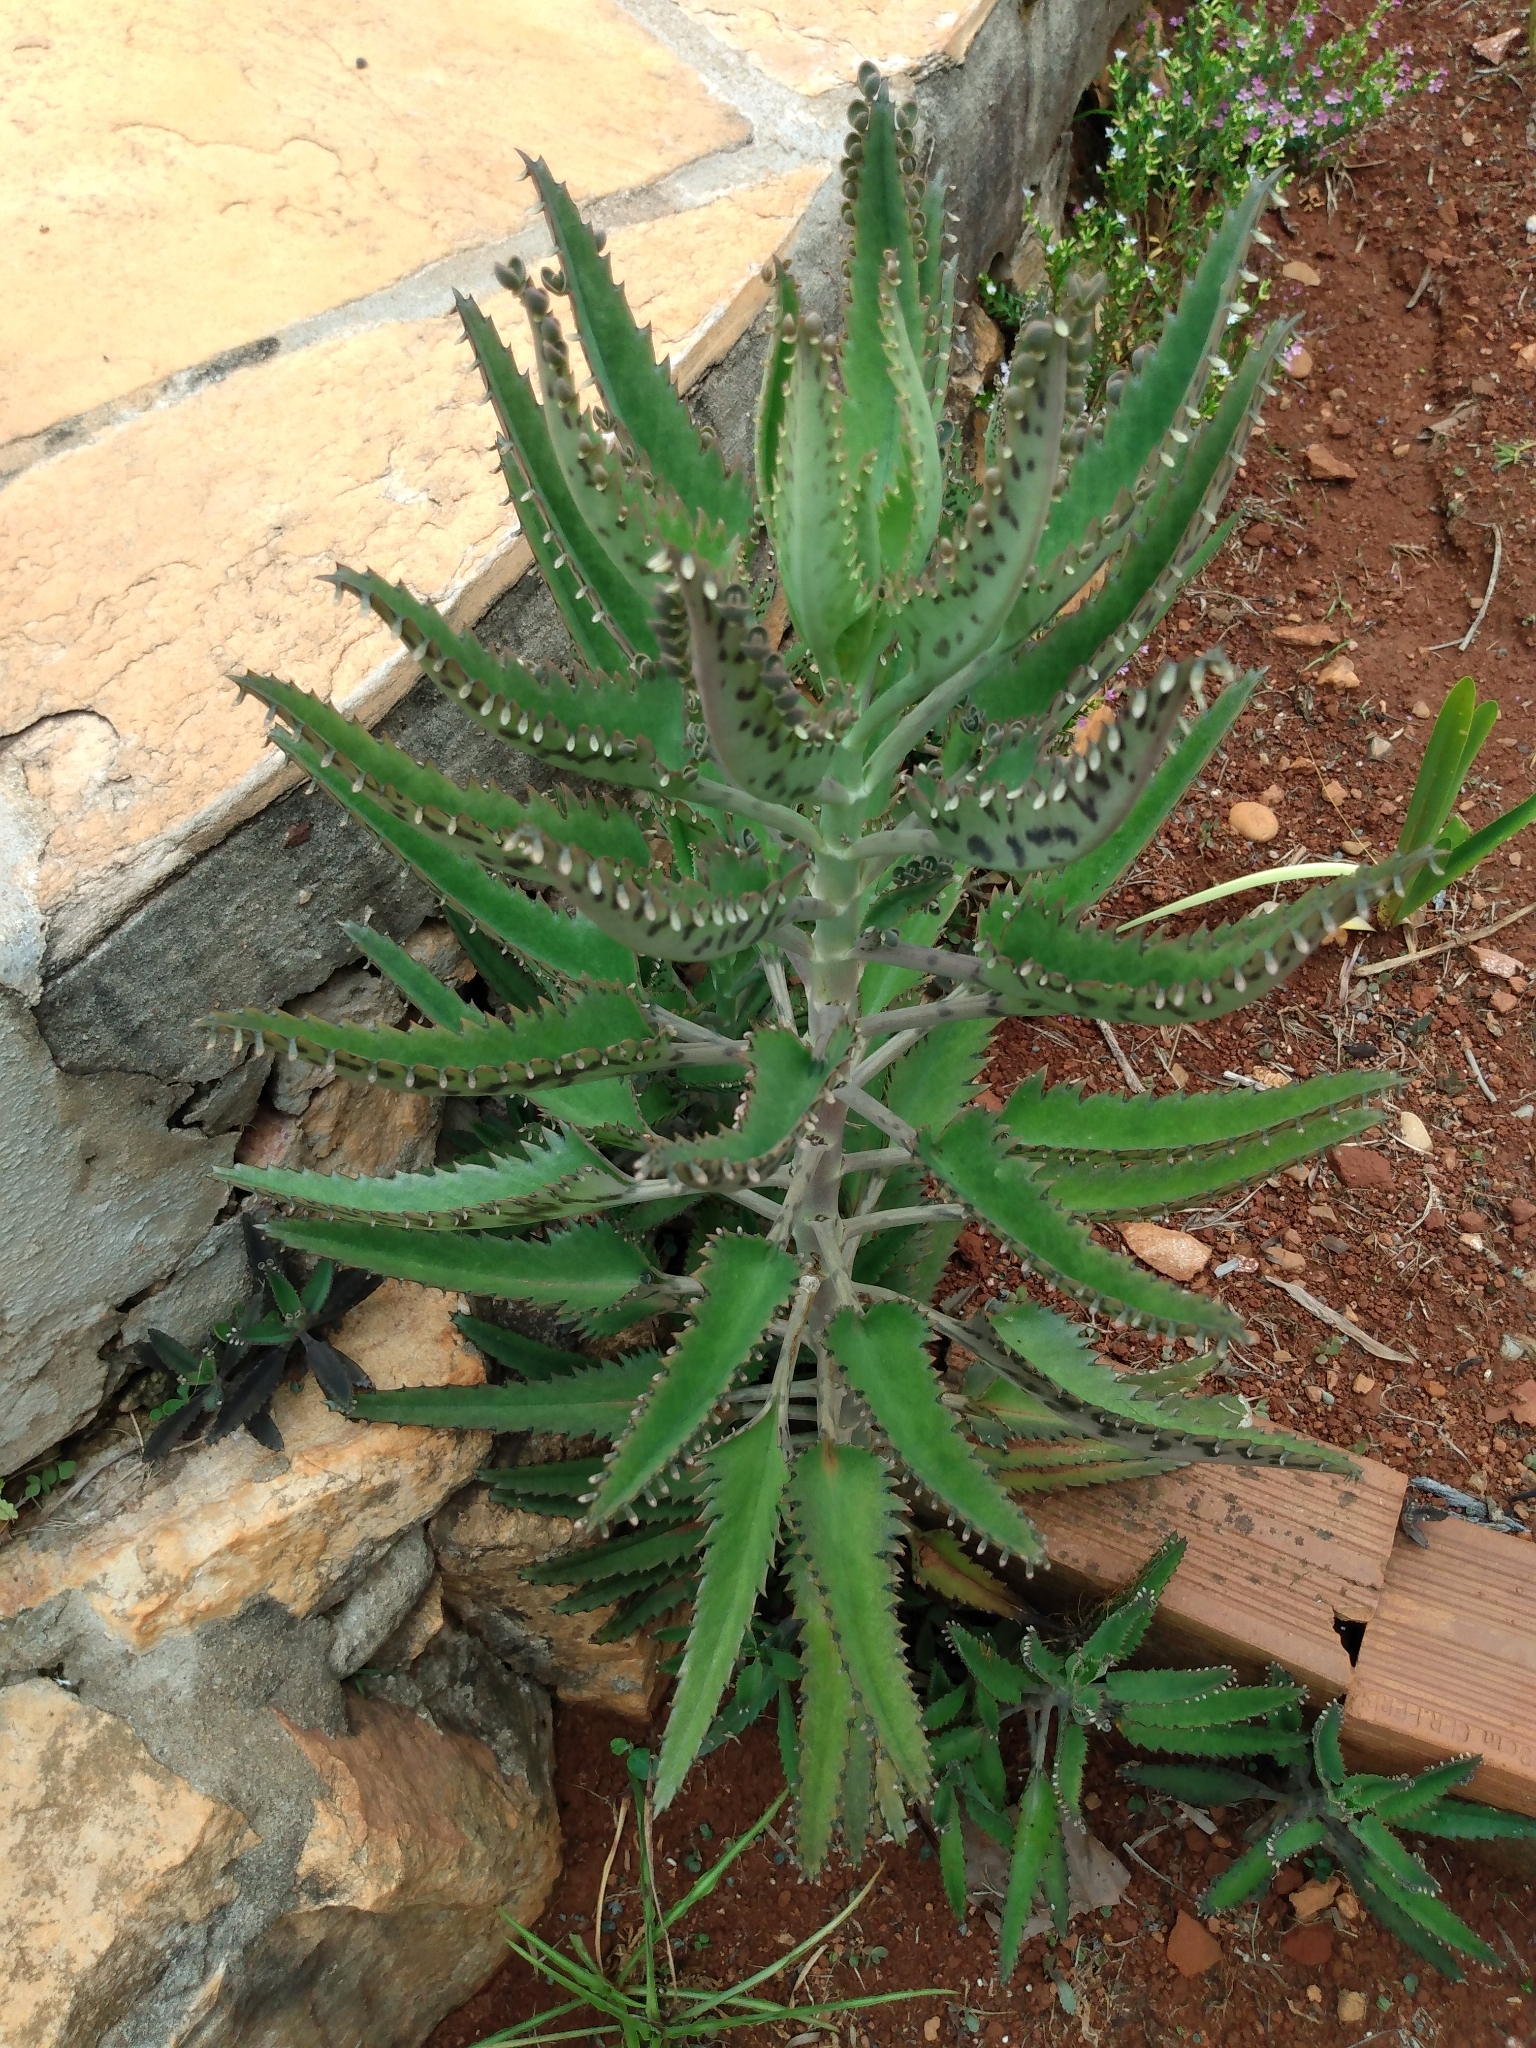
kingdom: Plantae
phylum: Tracheophyta
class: Magnoliopsida
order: Saxifragales
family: Crassulaceae
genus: Kalanchoe
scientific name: Kalanchoe houghtonii
